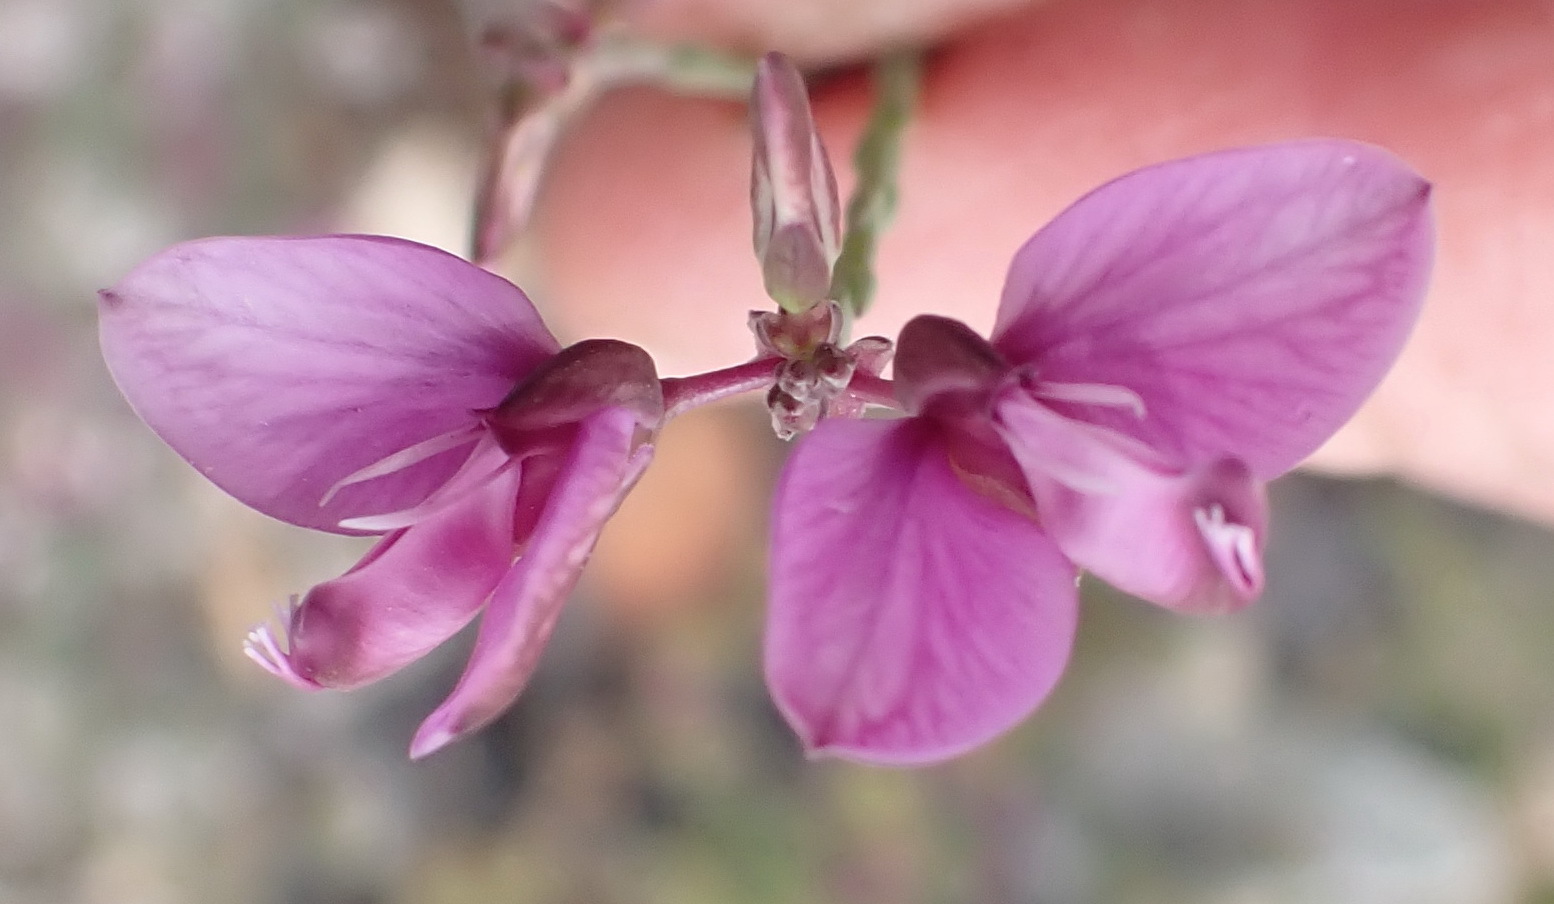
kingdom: Plantae
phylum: Tracheophyta
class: Magnoliopsida
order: Fabales
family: Polygalaceae
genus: Polygala
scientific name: Polygala microlopha
